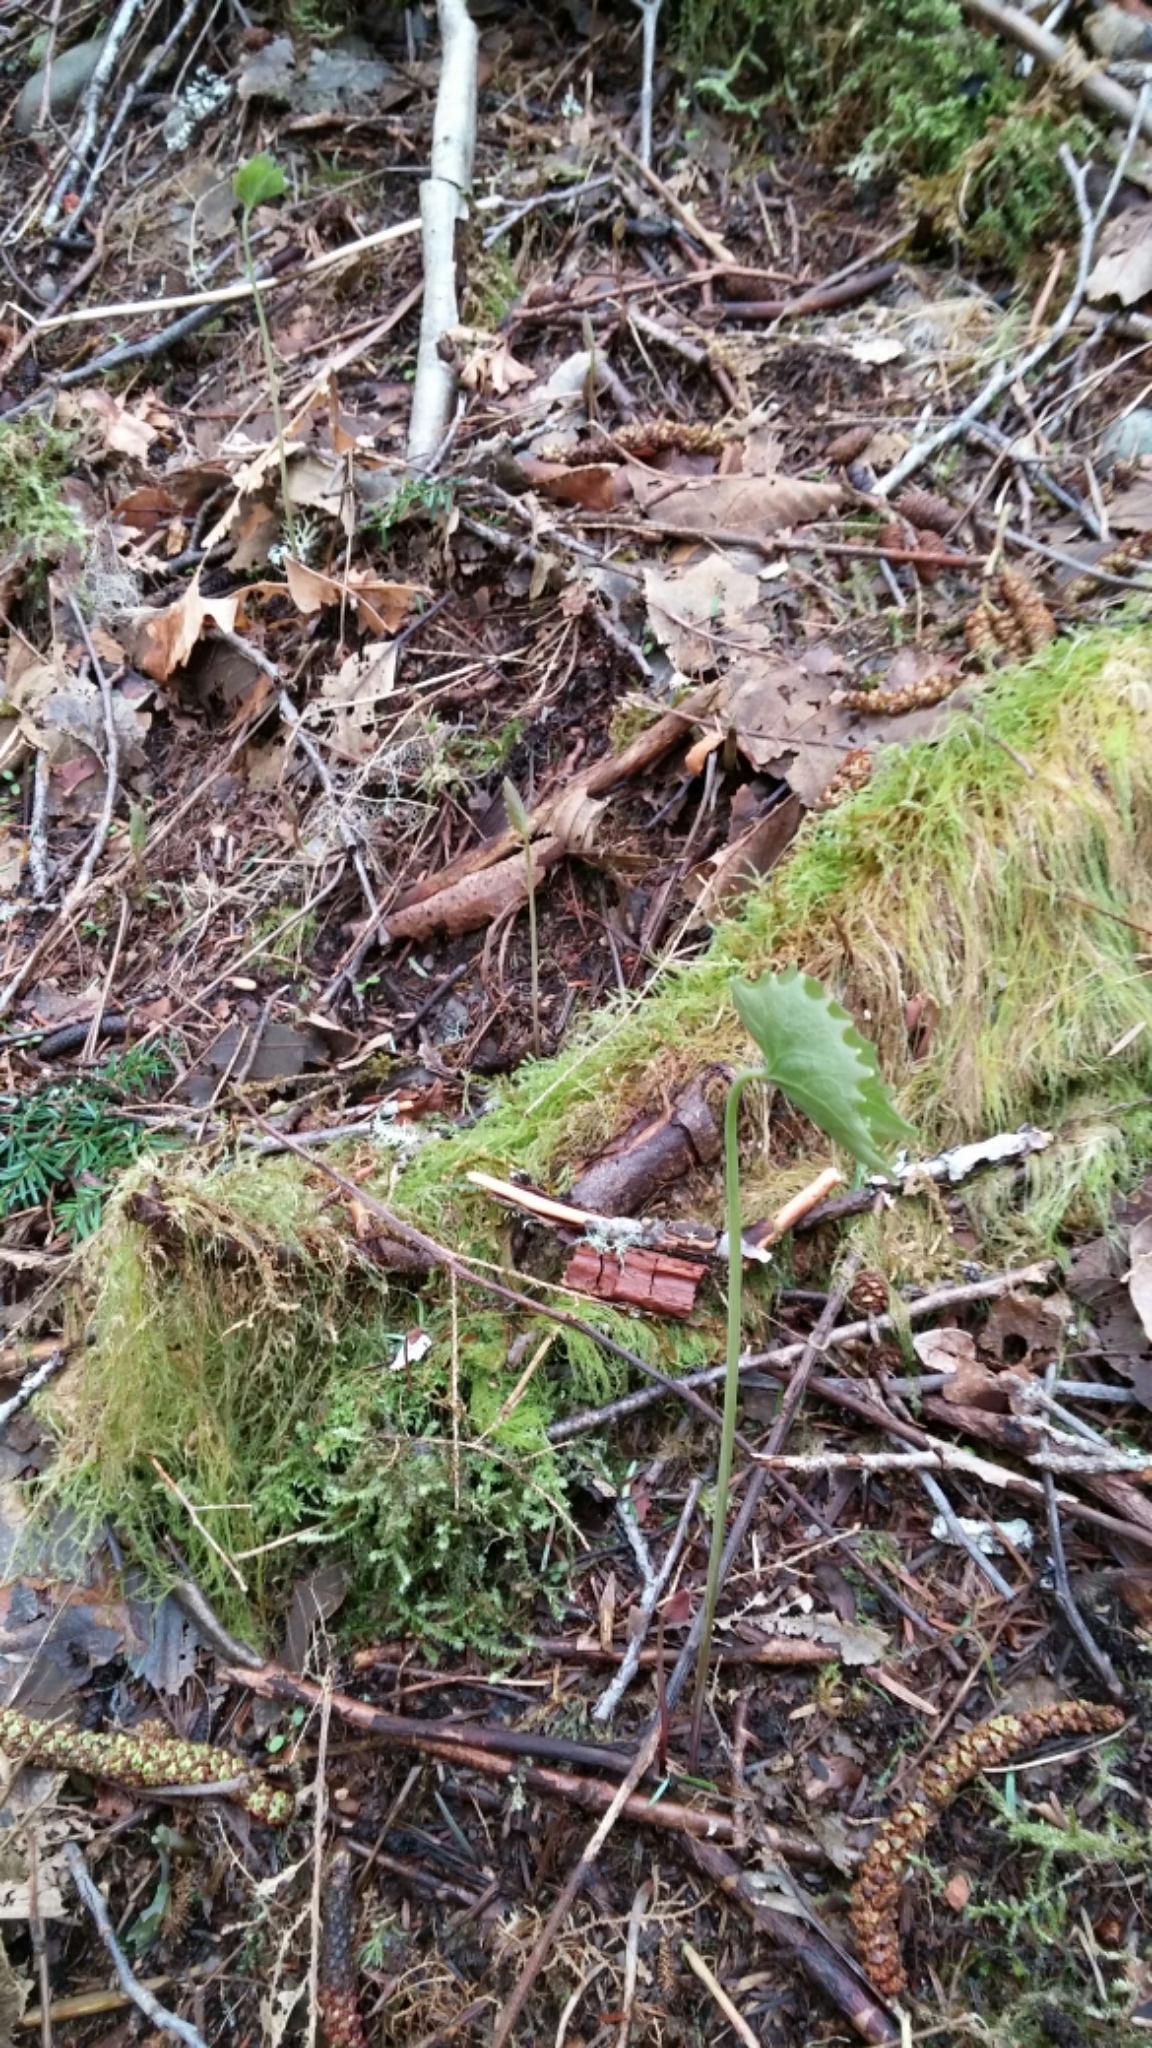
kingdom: Plantae
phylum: Tracheophyta
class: Magnoliopsida
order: Ranunculales
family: Berberidaceae
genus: Achlys
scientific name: Achlys triphylla
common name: Vanilla-leaf
